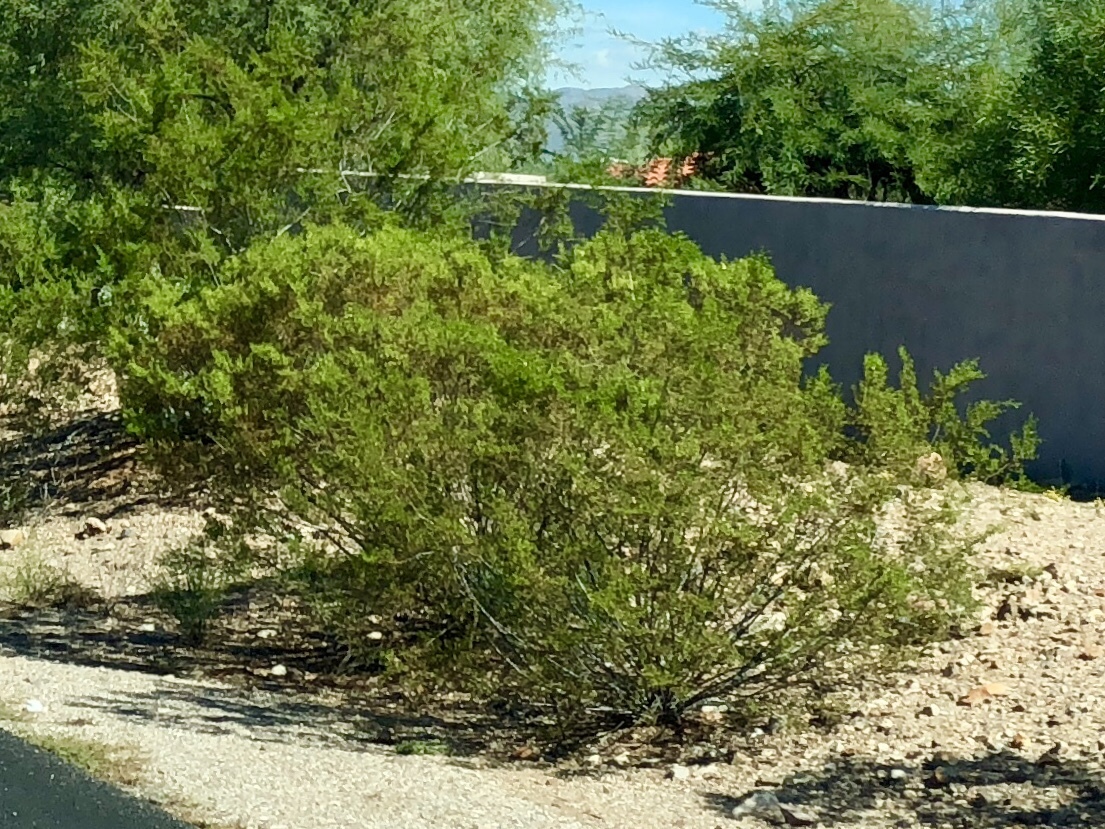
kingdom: Plantae
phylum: Tracheophyta
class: Magnoliopsida
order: Zygophyllales
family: Zygophyllaceae
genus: Larrea
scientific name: Larrea tridentata
